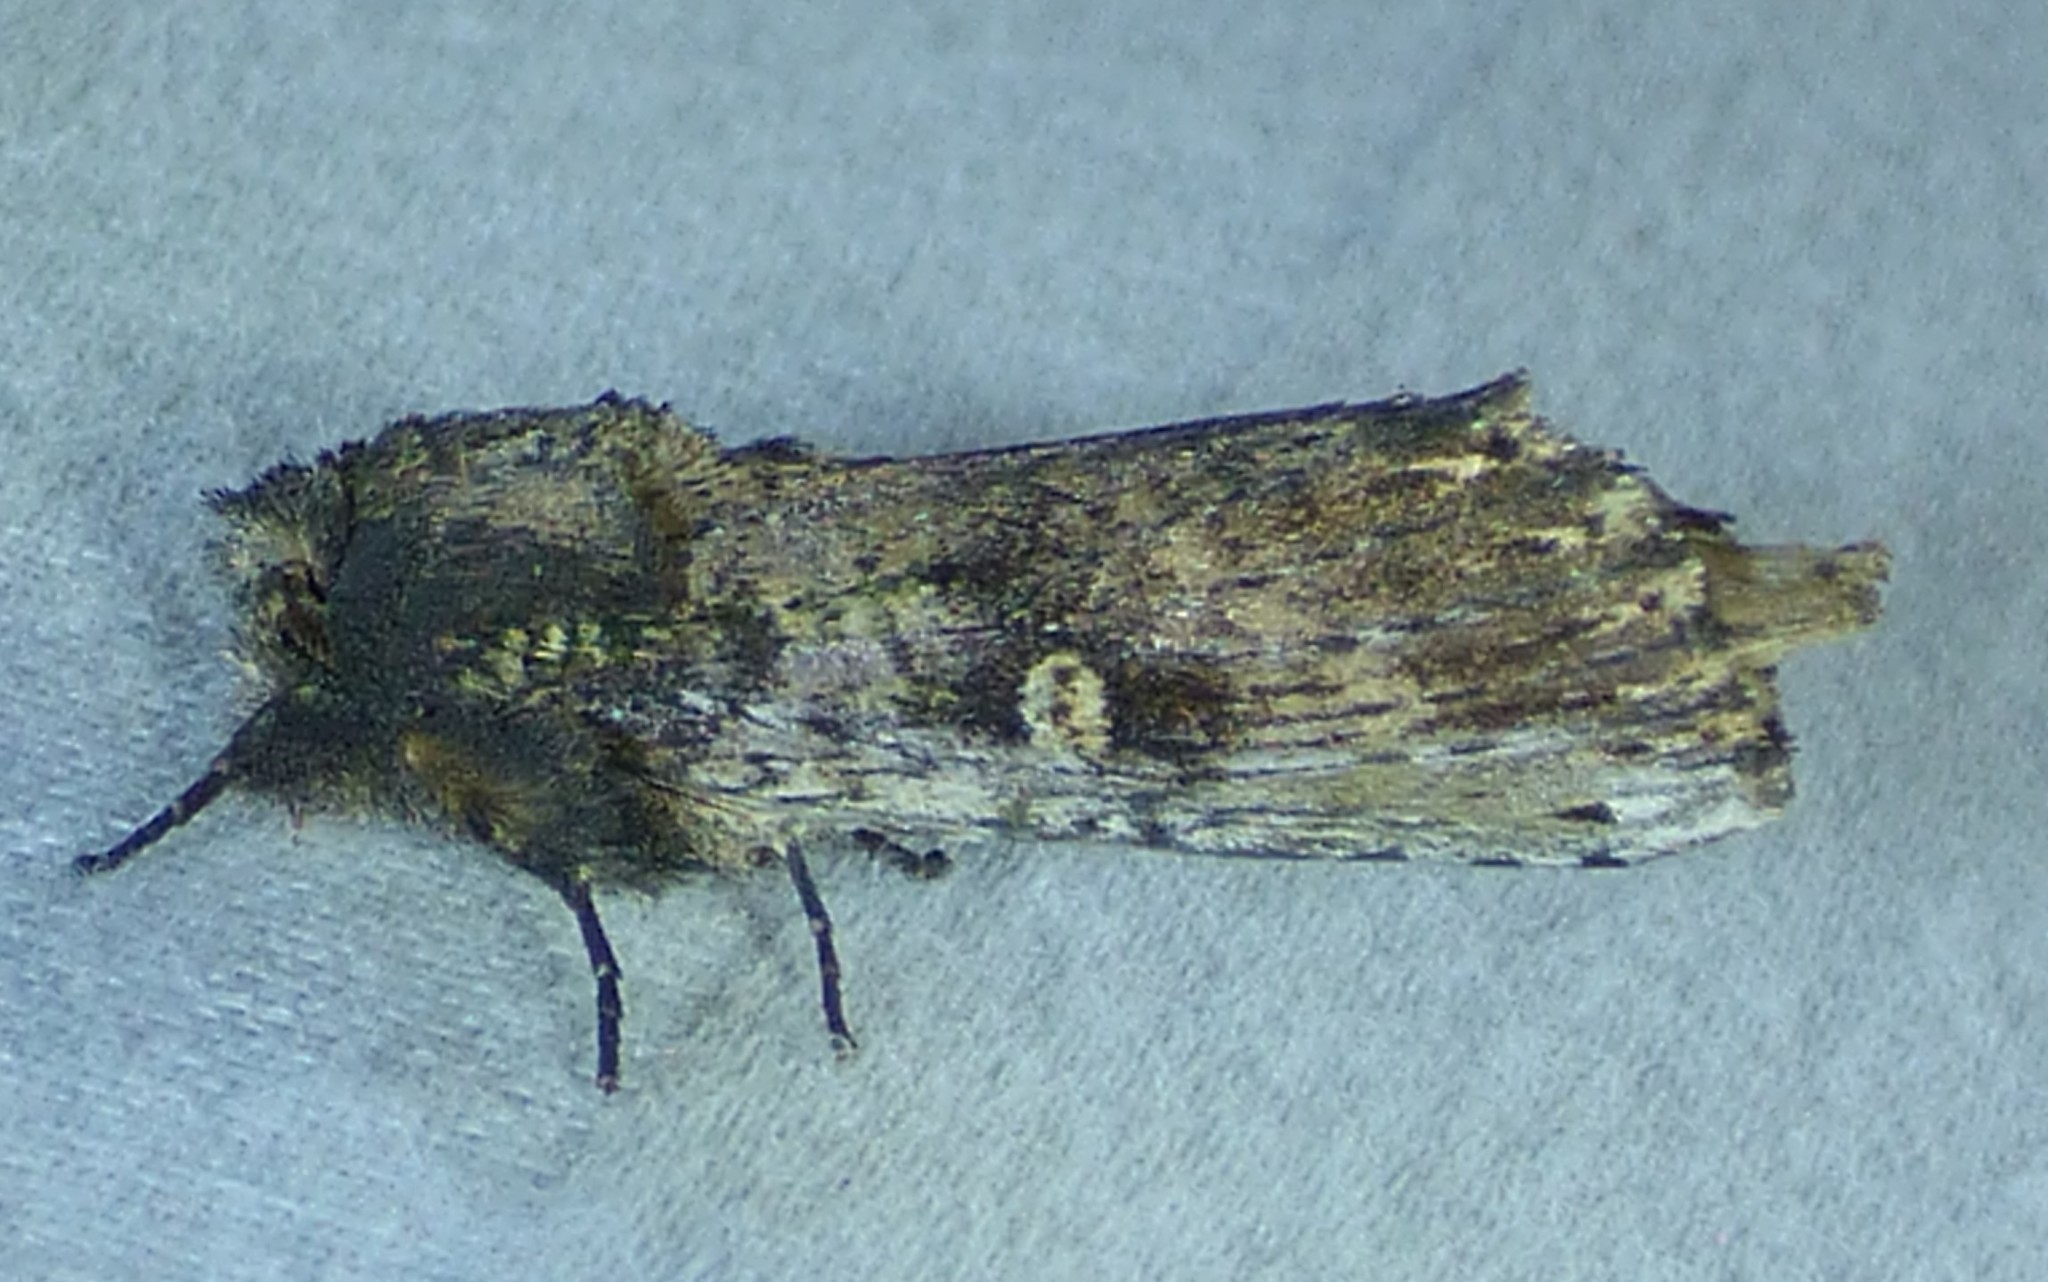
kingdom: Animalia
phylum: Arthropoda
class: Insecta
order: Lepidoptera
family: Notodontidae
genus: Schizura
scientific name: Schizura ipomaeae
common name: Morning-glory prominent
